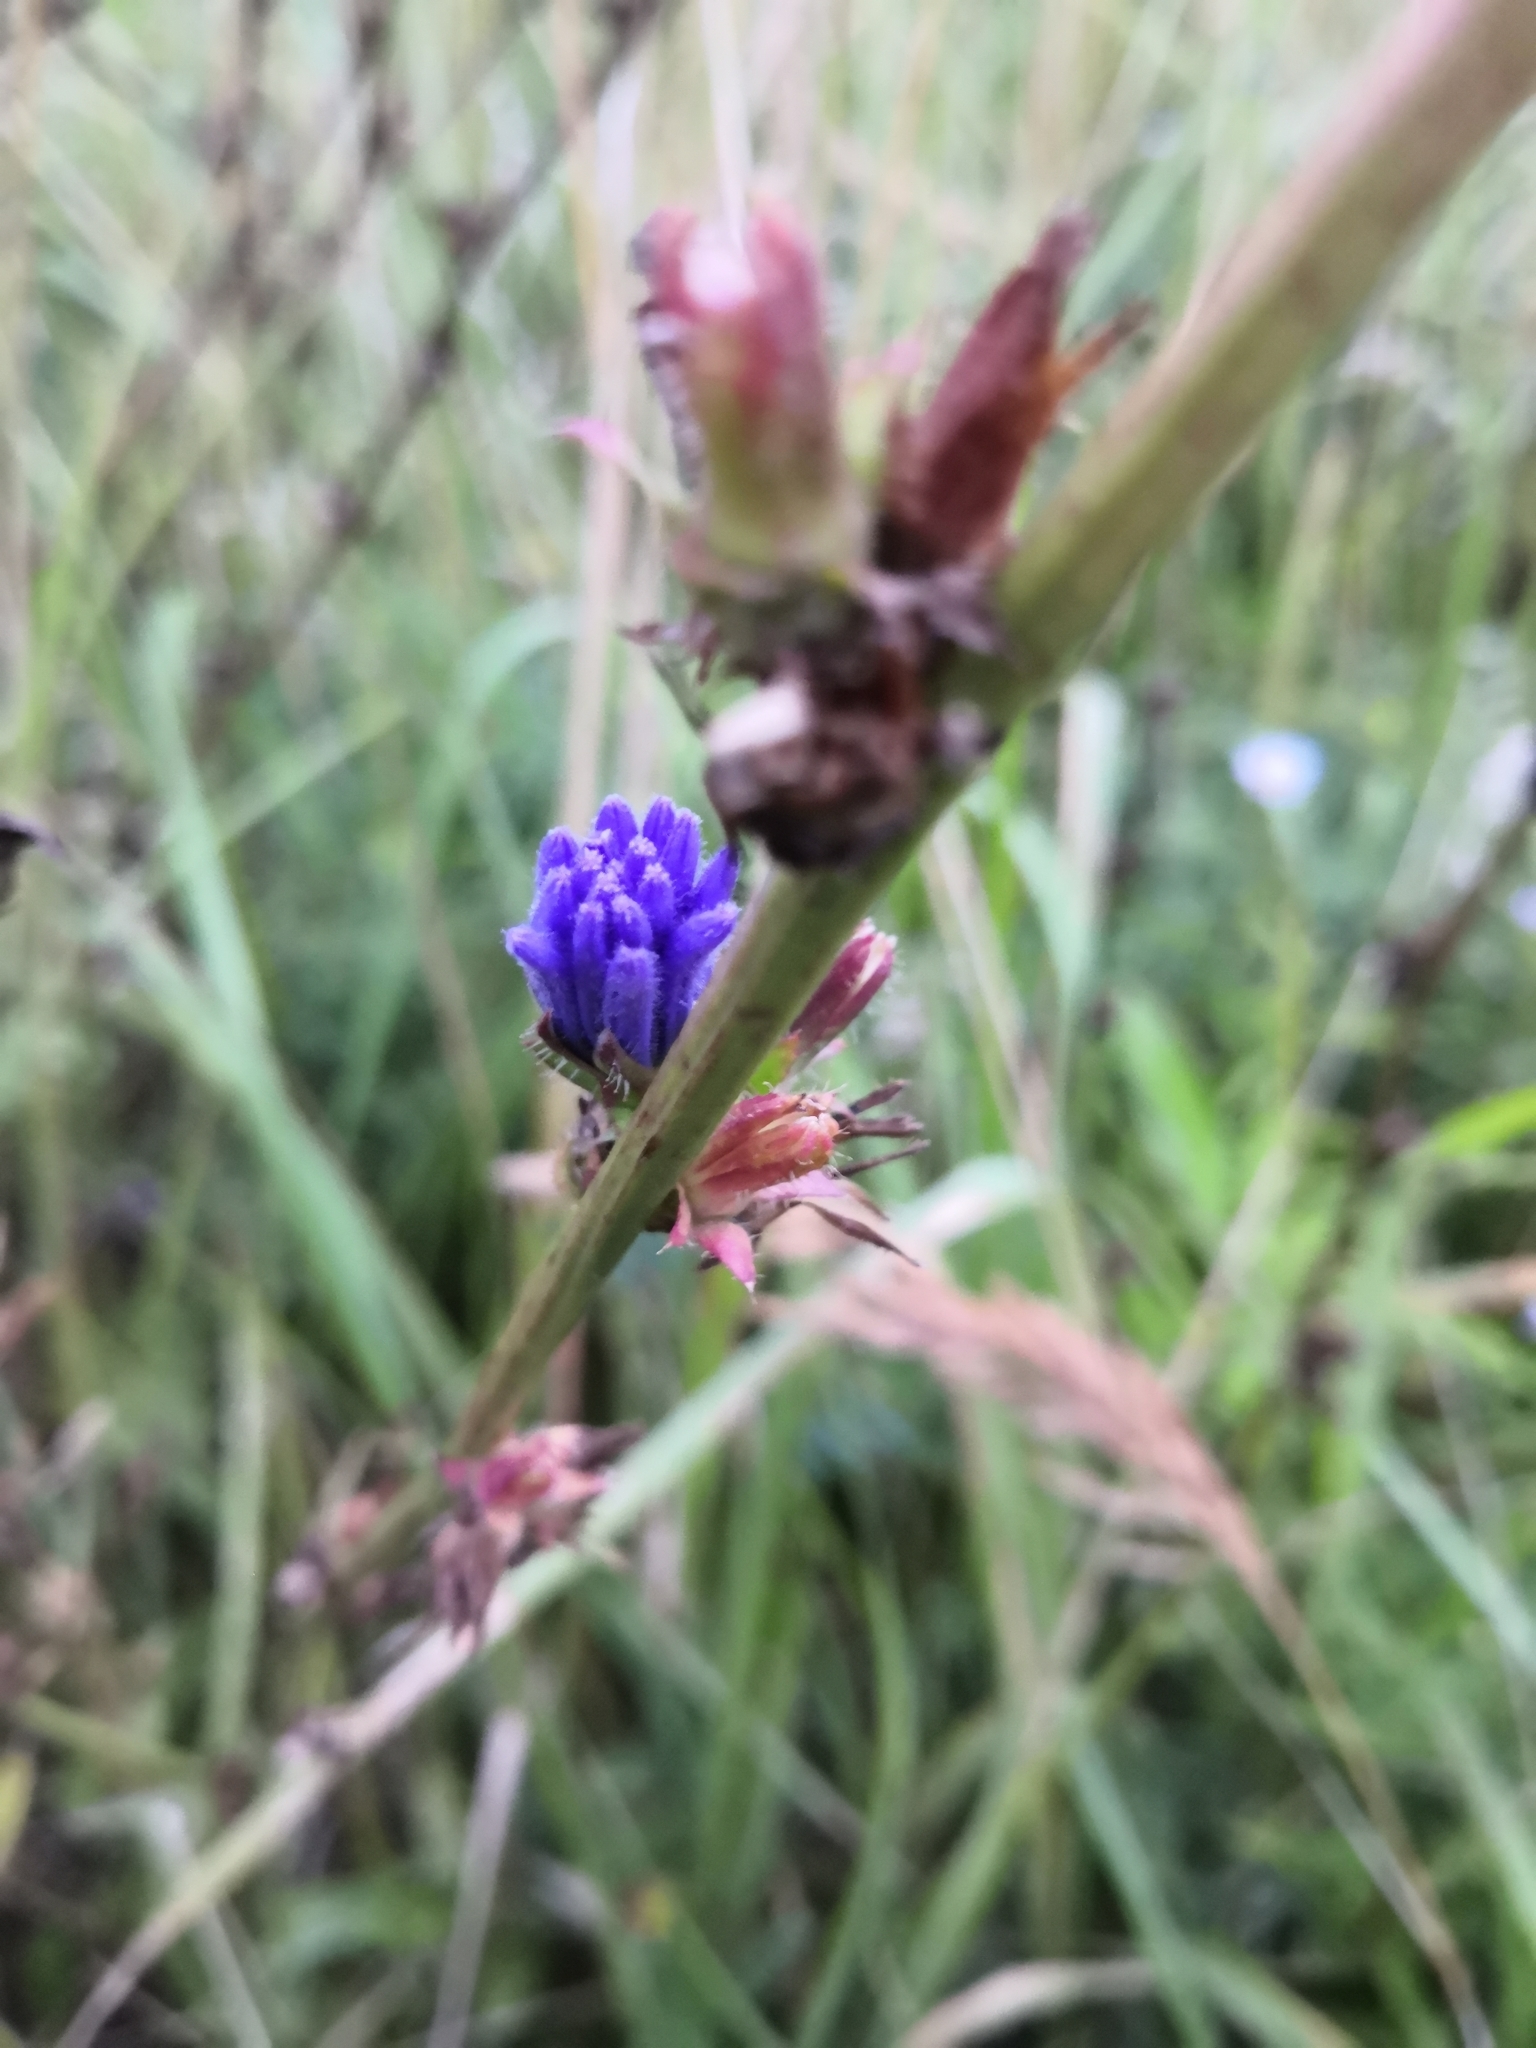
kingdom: Plantae
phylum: Tracheophyta
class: Magnoliopsida
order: Asterales
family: Asteraceae
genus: Cichorium
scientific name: Cichorium intybus
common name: Chicory
